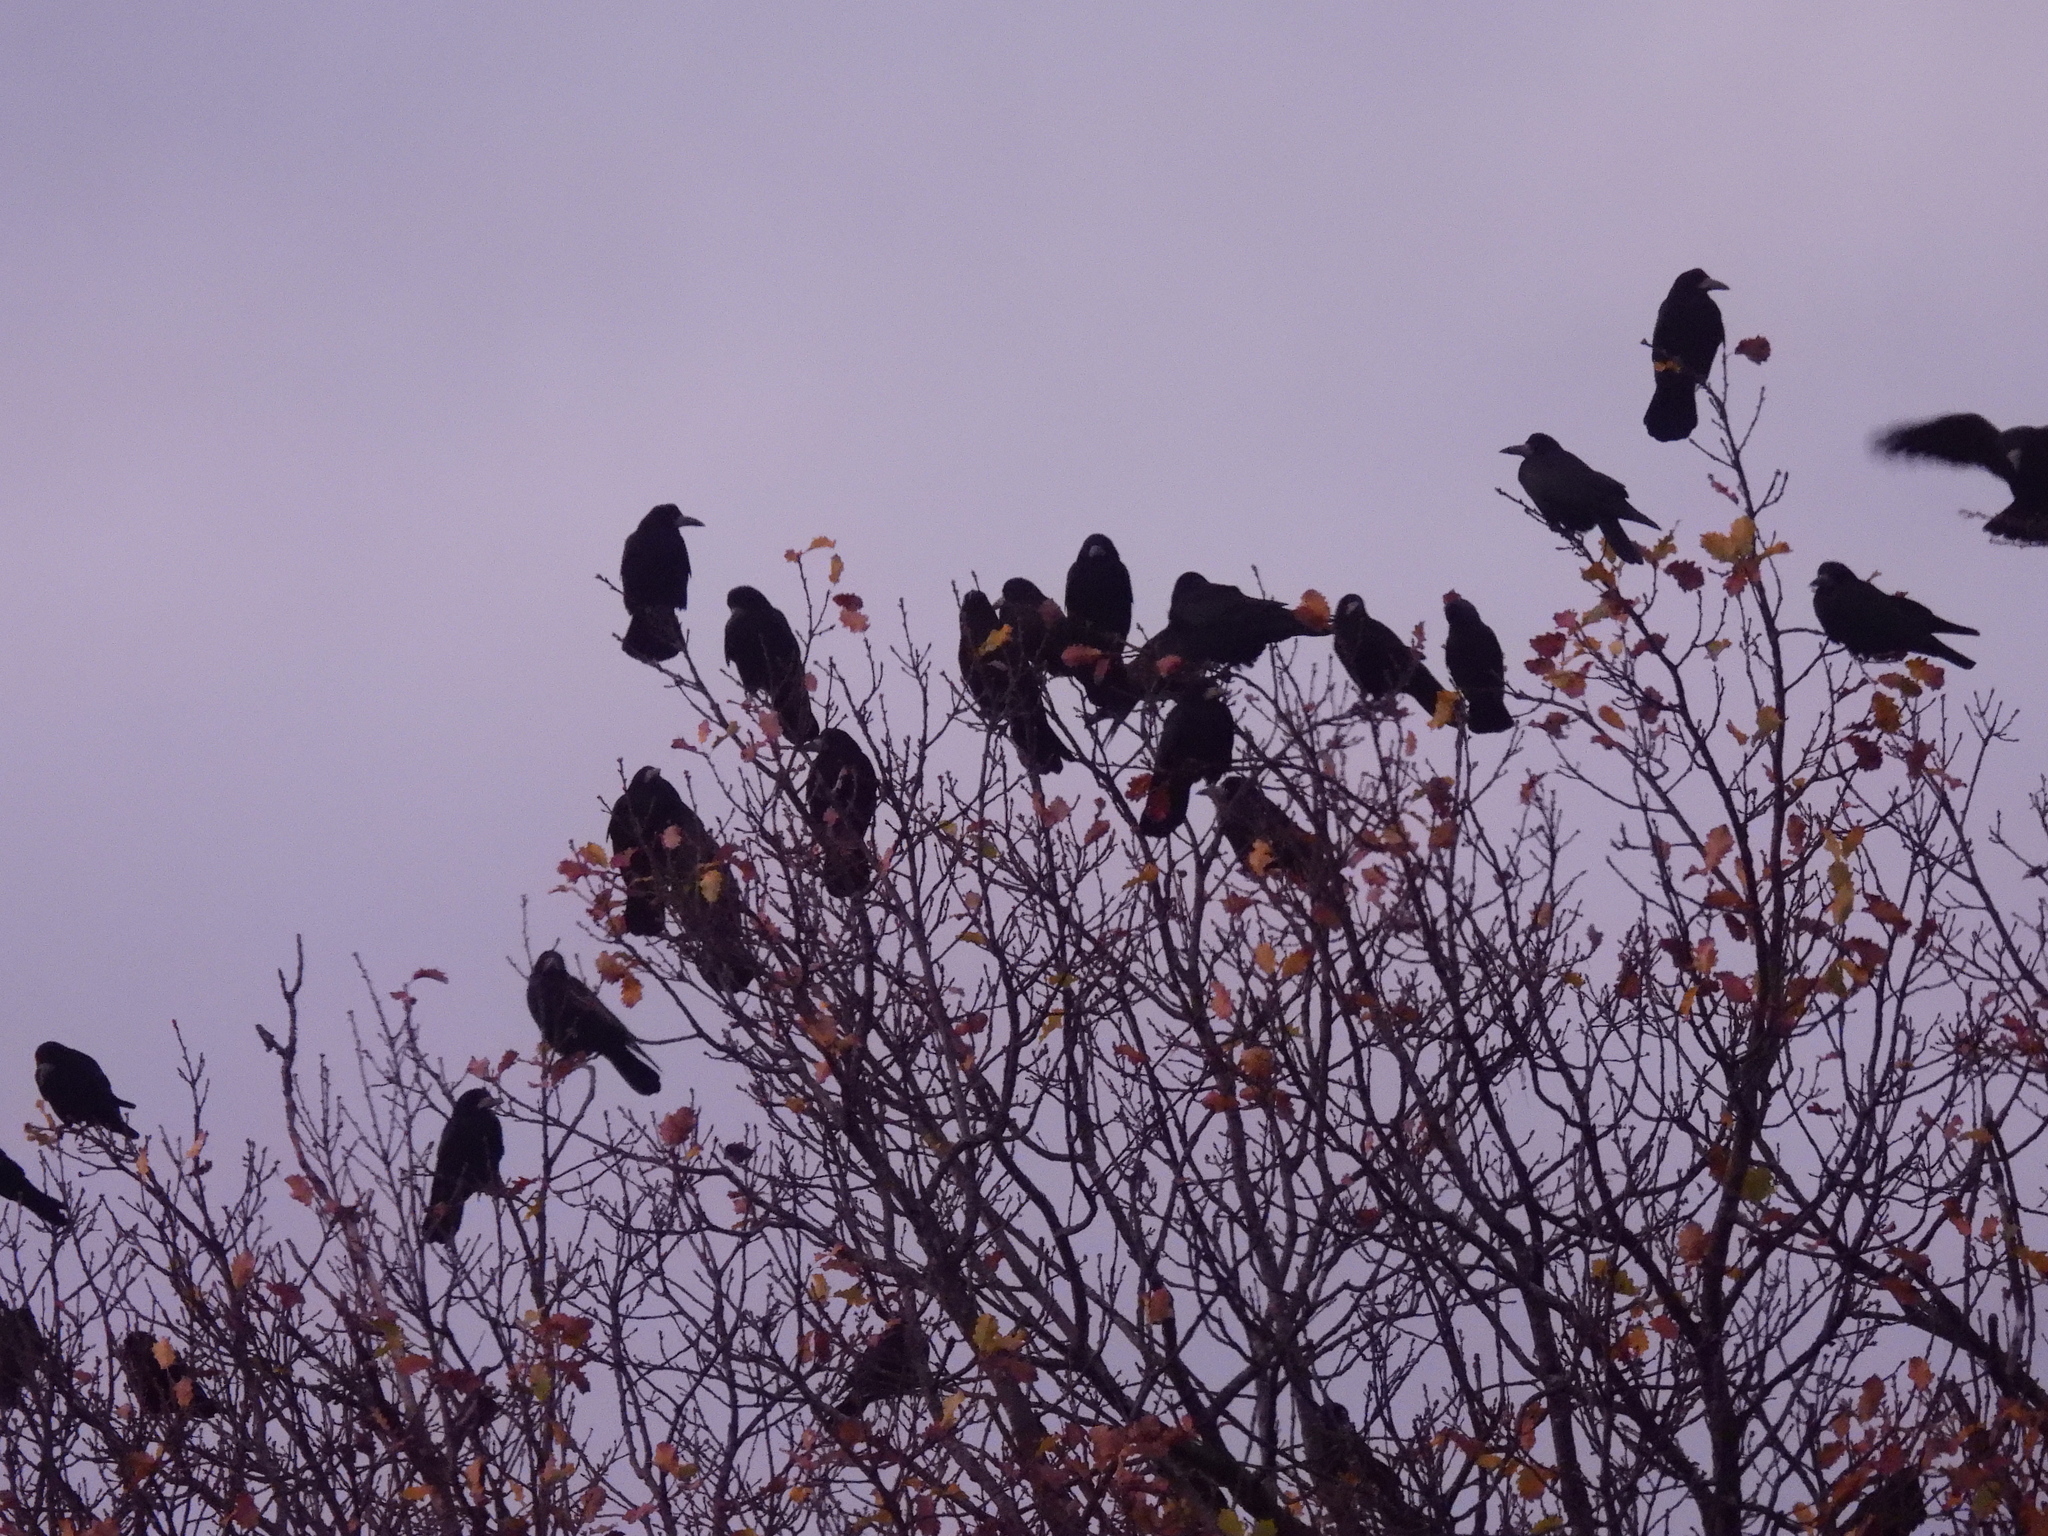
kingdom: Animalia
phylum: Chordata
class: Aves
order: Passeriformes
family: Corvidae
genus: Corvus
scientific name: Corvus frugilegus
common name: Rook
